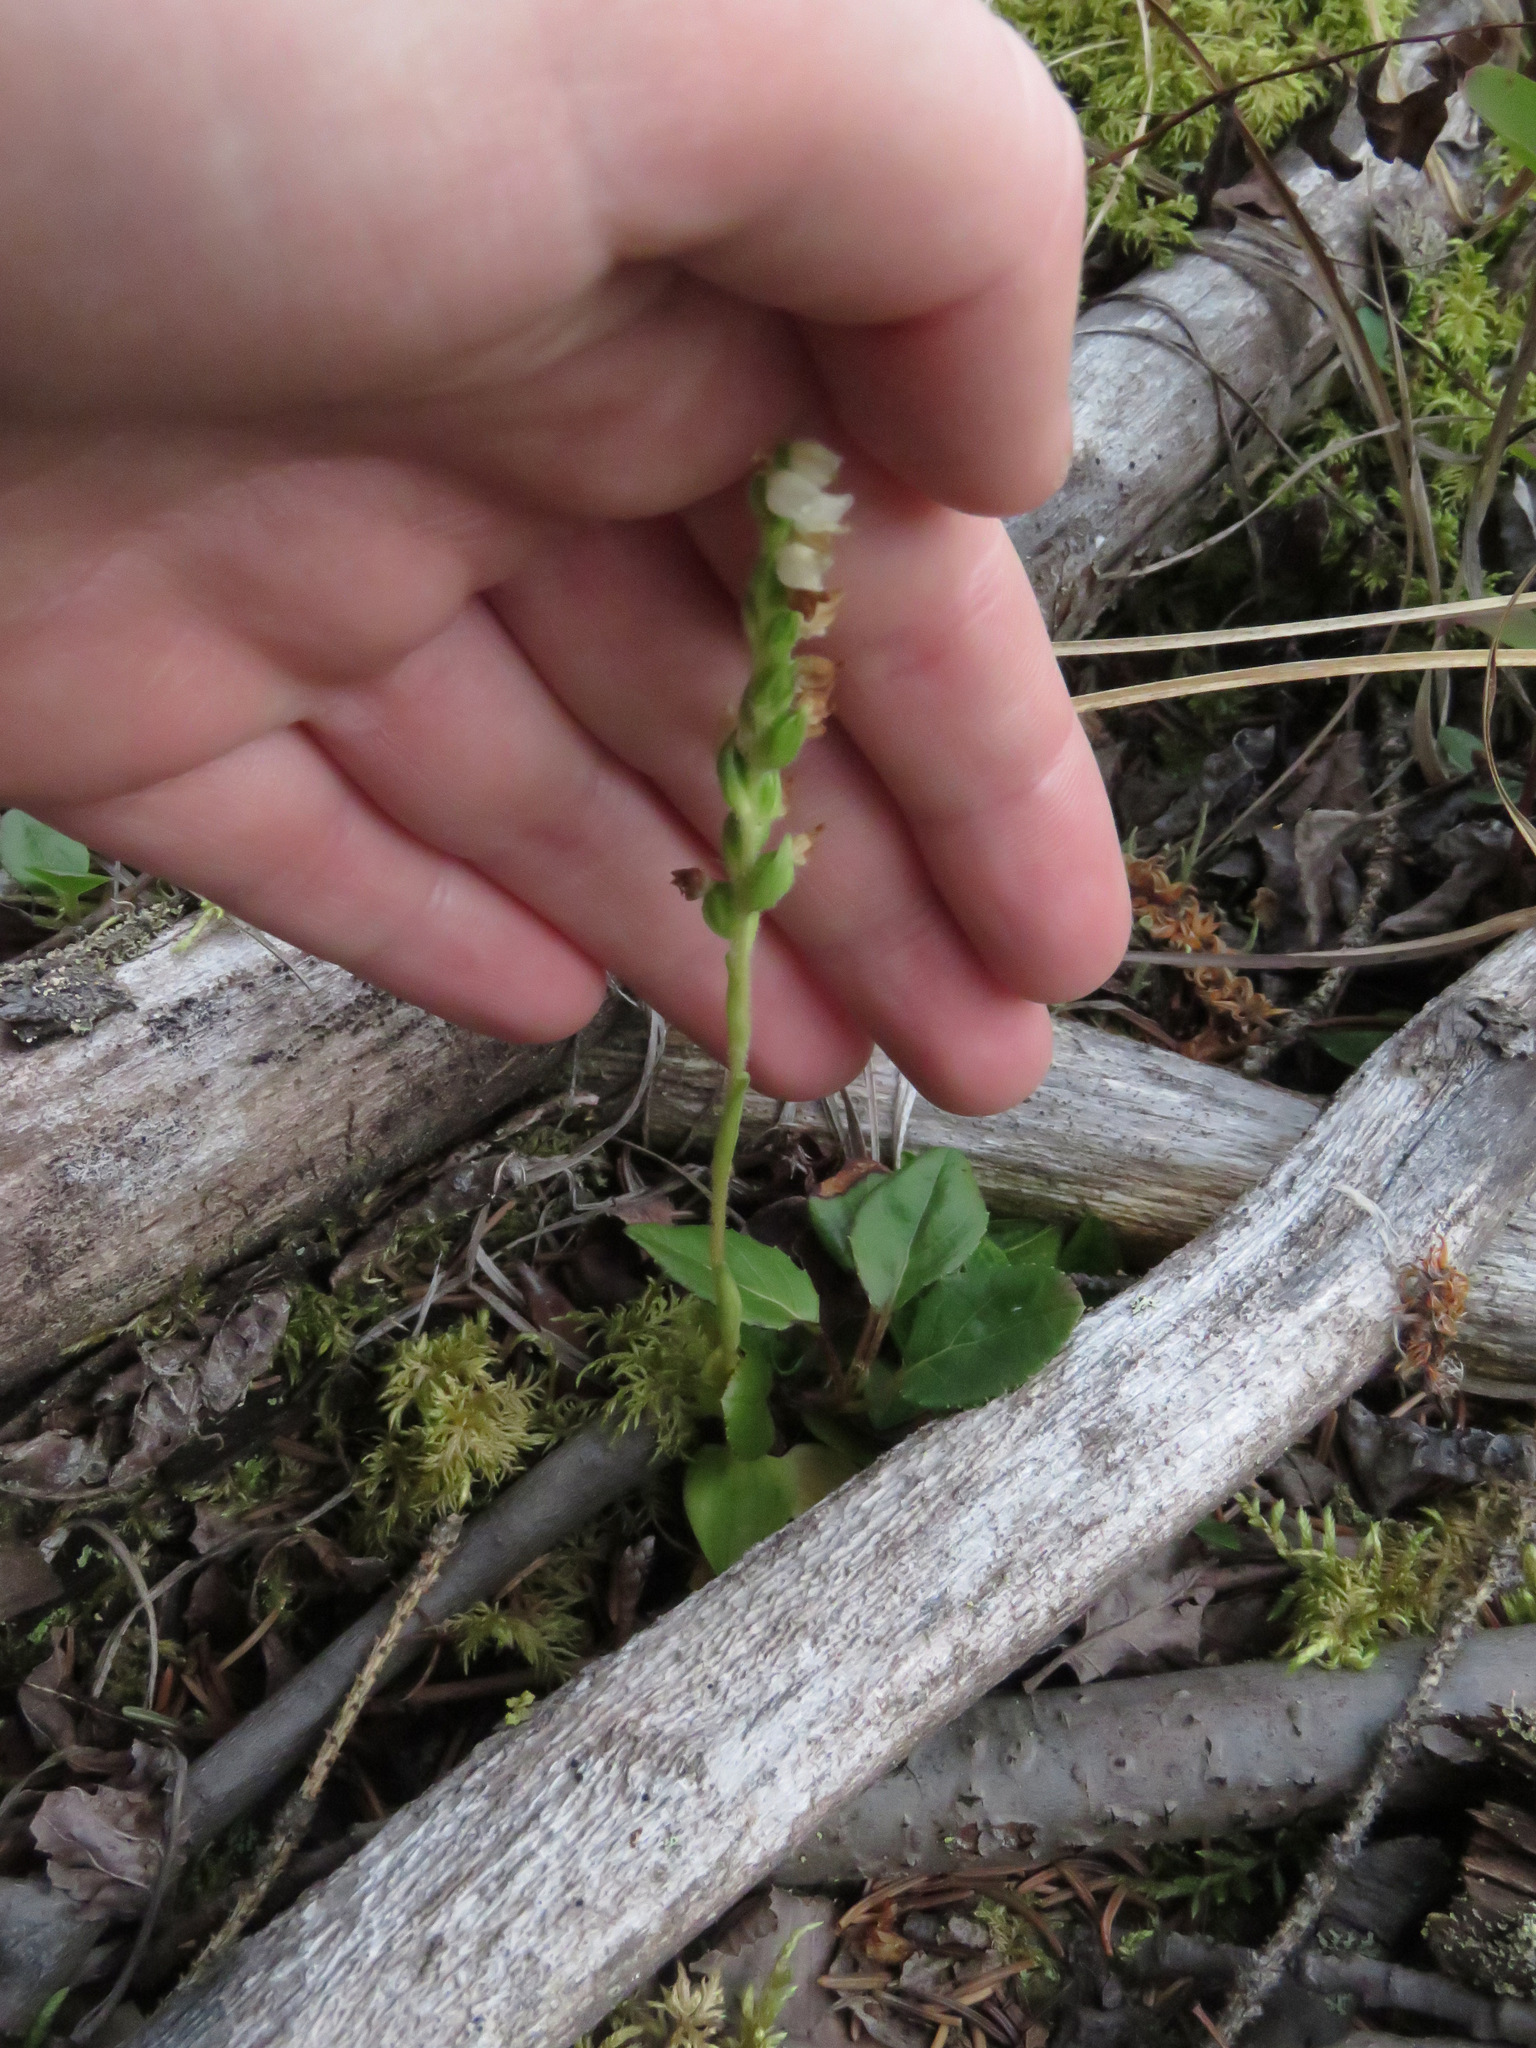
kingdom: Plantae
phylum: Tracheophyta
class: Liliopsida
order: Asparagales
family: Orchidaceae
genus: Goodyera
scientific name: Goodyera repens
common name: Creeping lady's-tresses
